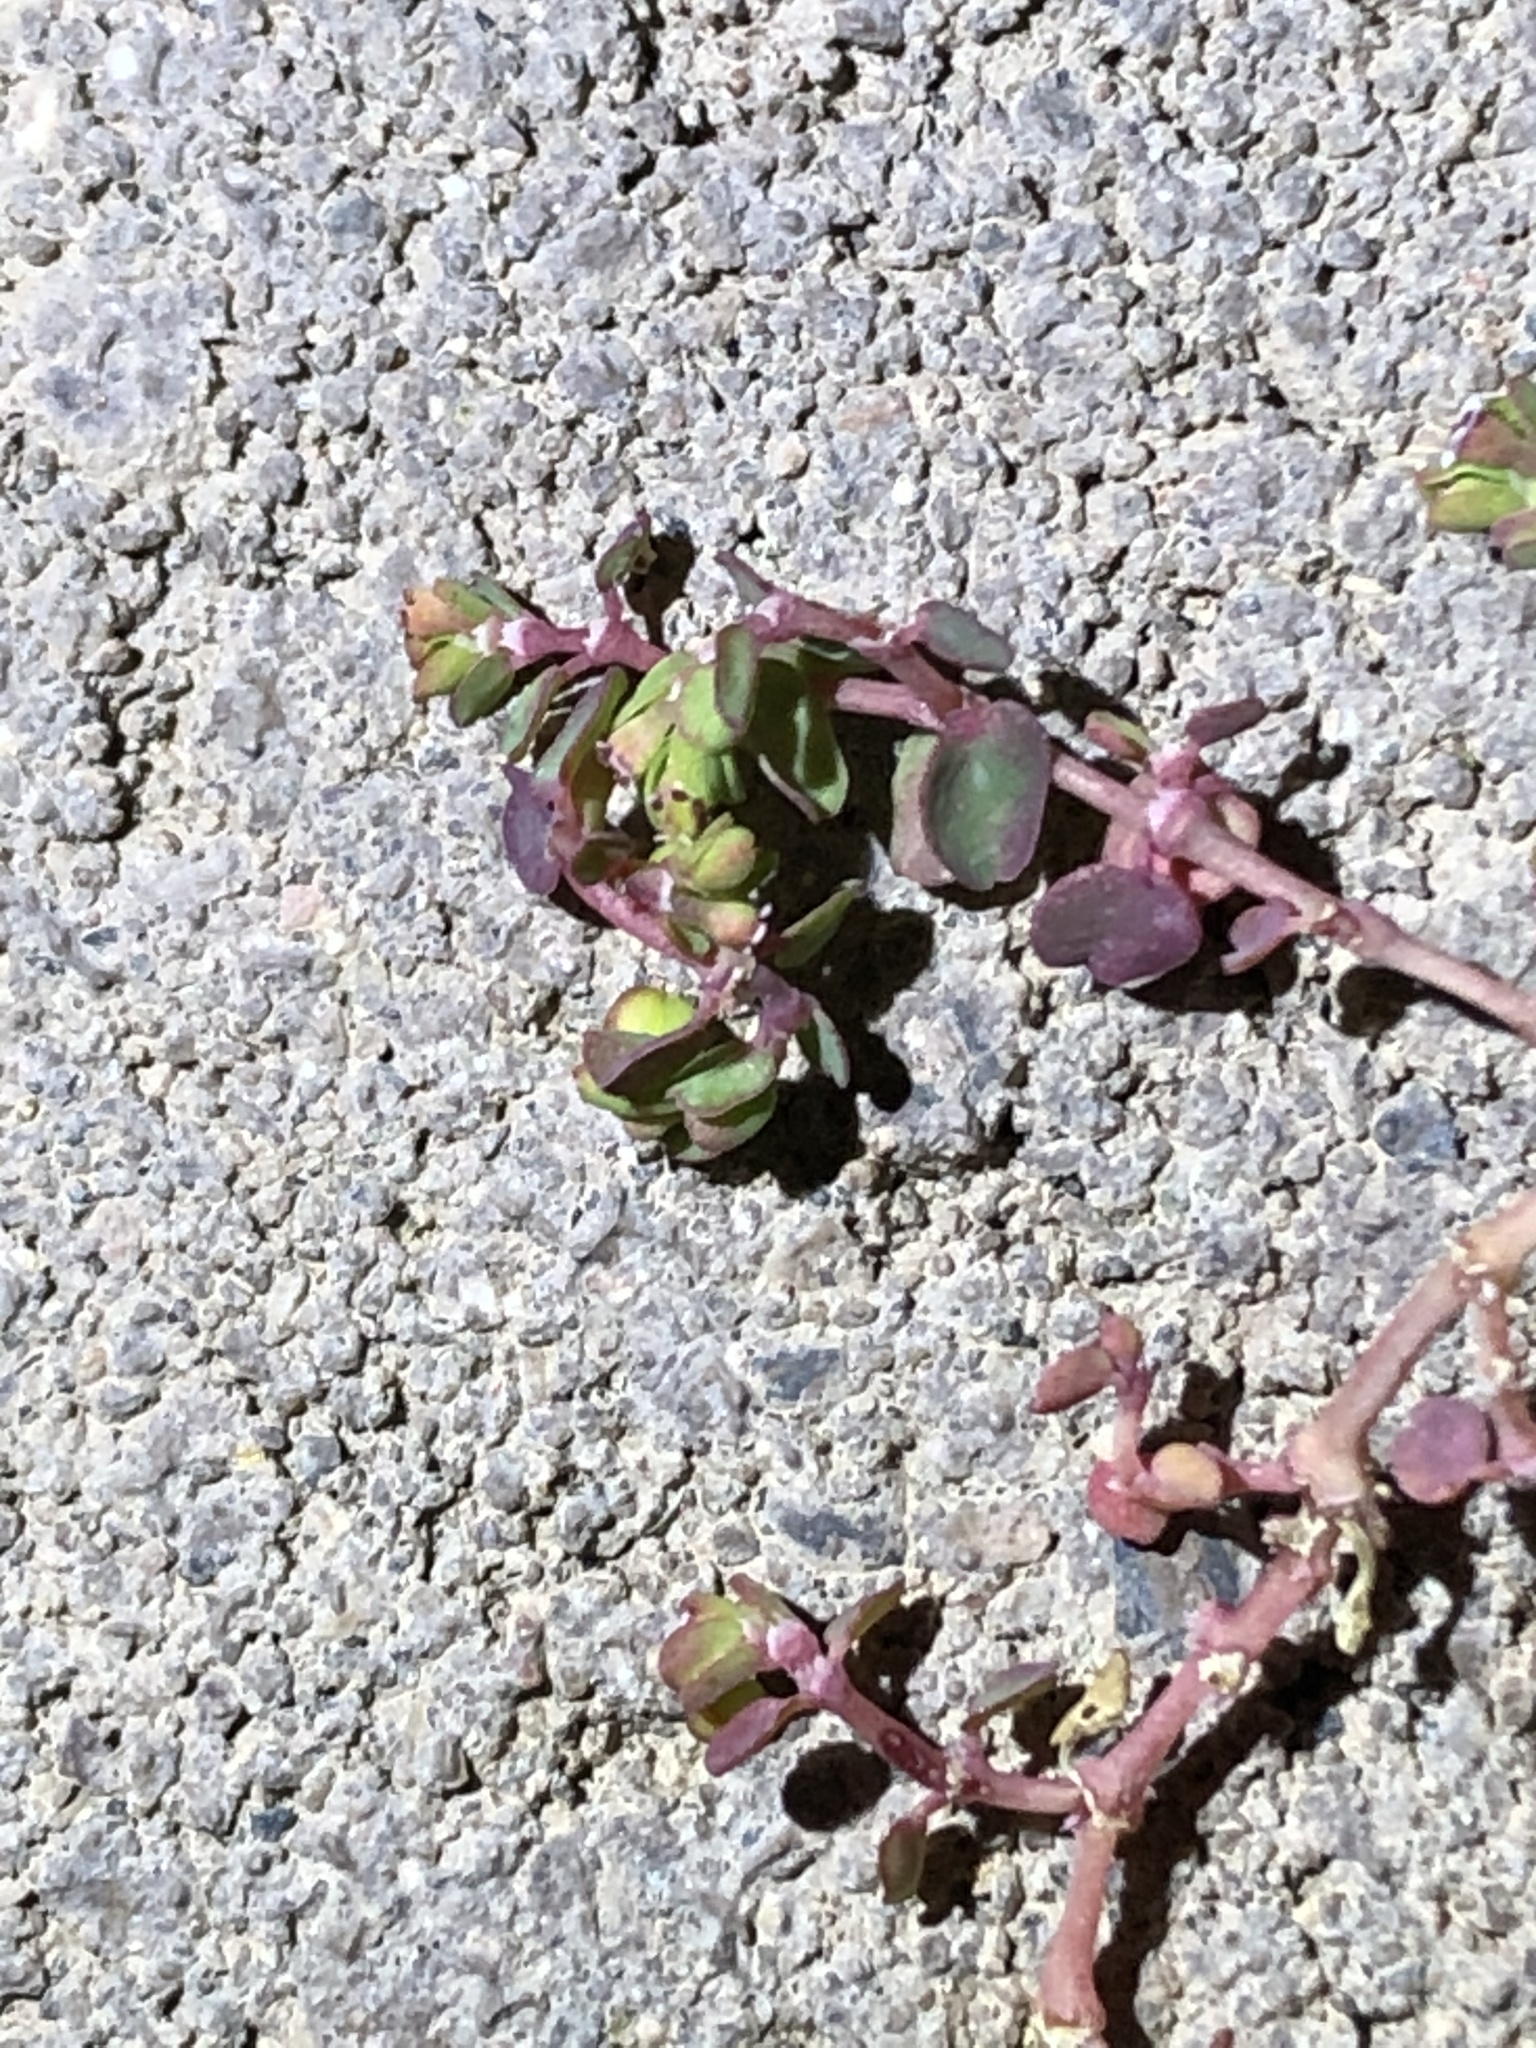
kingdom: Plantae
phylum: Tracheophyta
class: Magnoliopsida
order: Malpighiales
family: Euphorbiaceae
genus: Euphorbia
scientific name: Euphorbia serpens
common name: Matted sandmat
